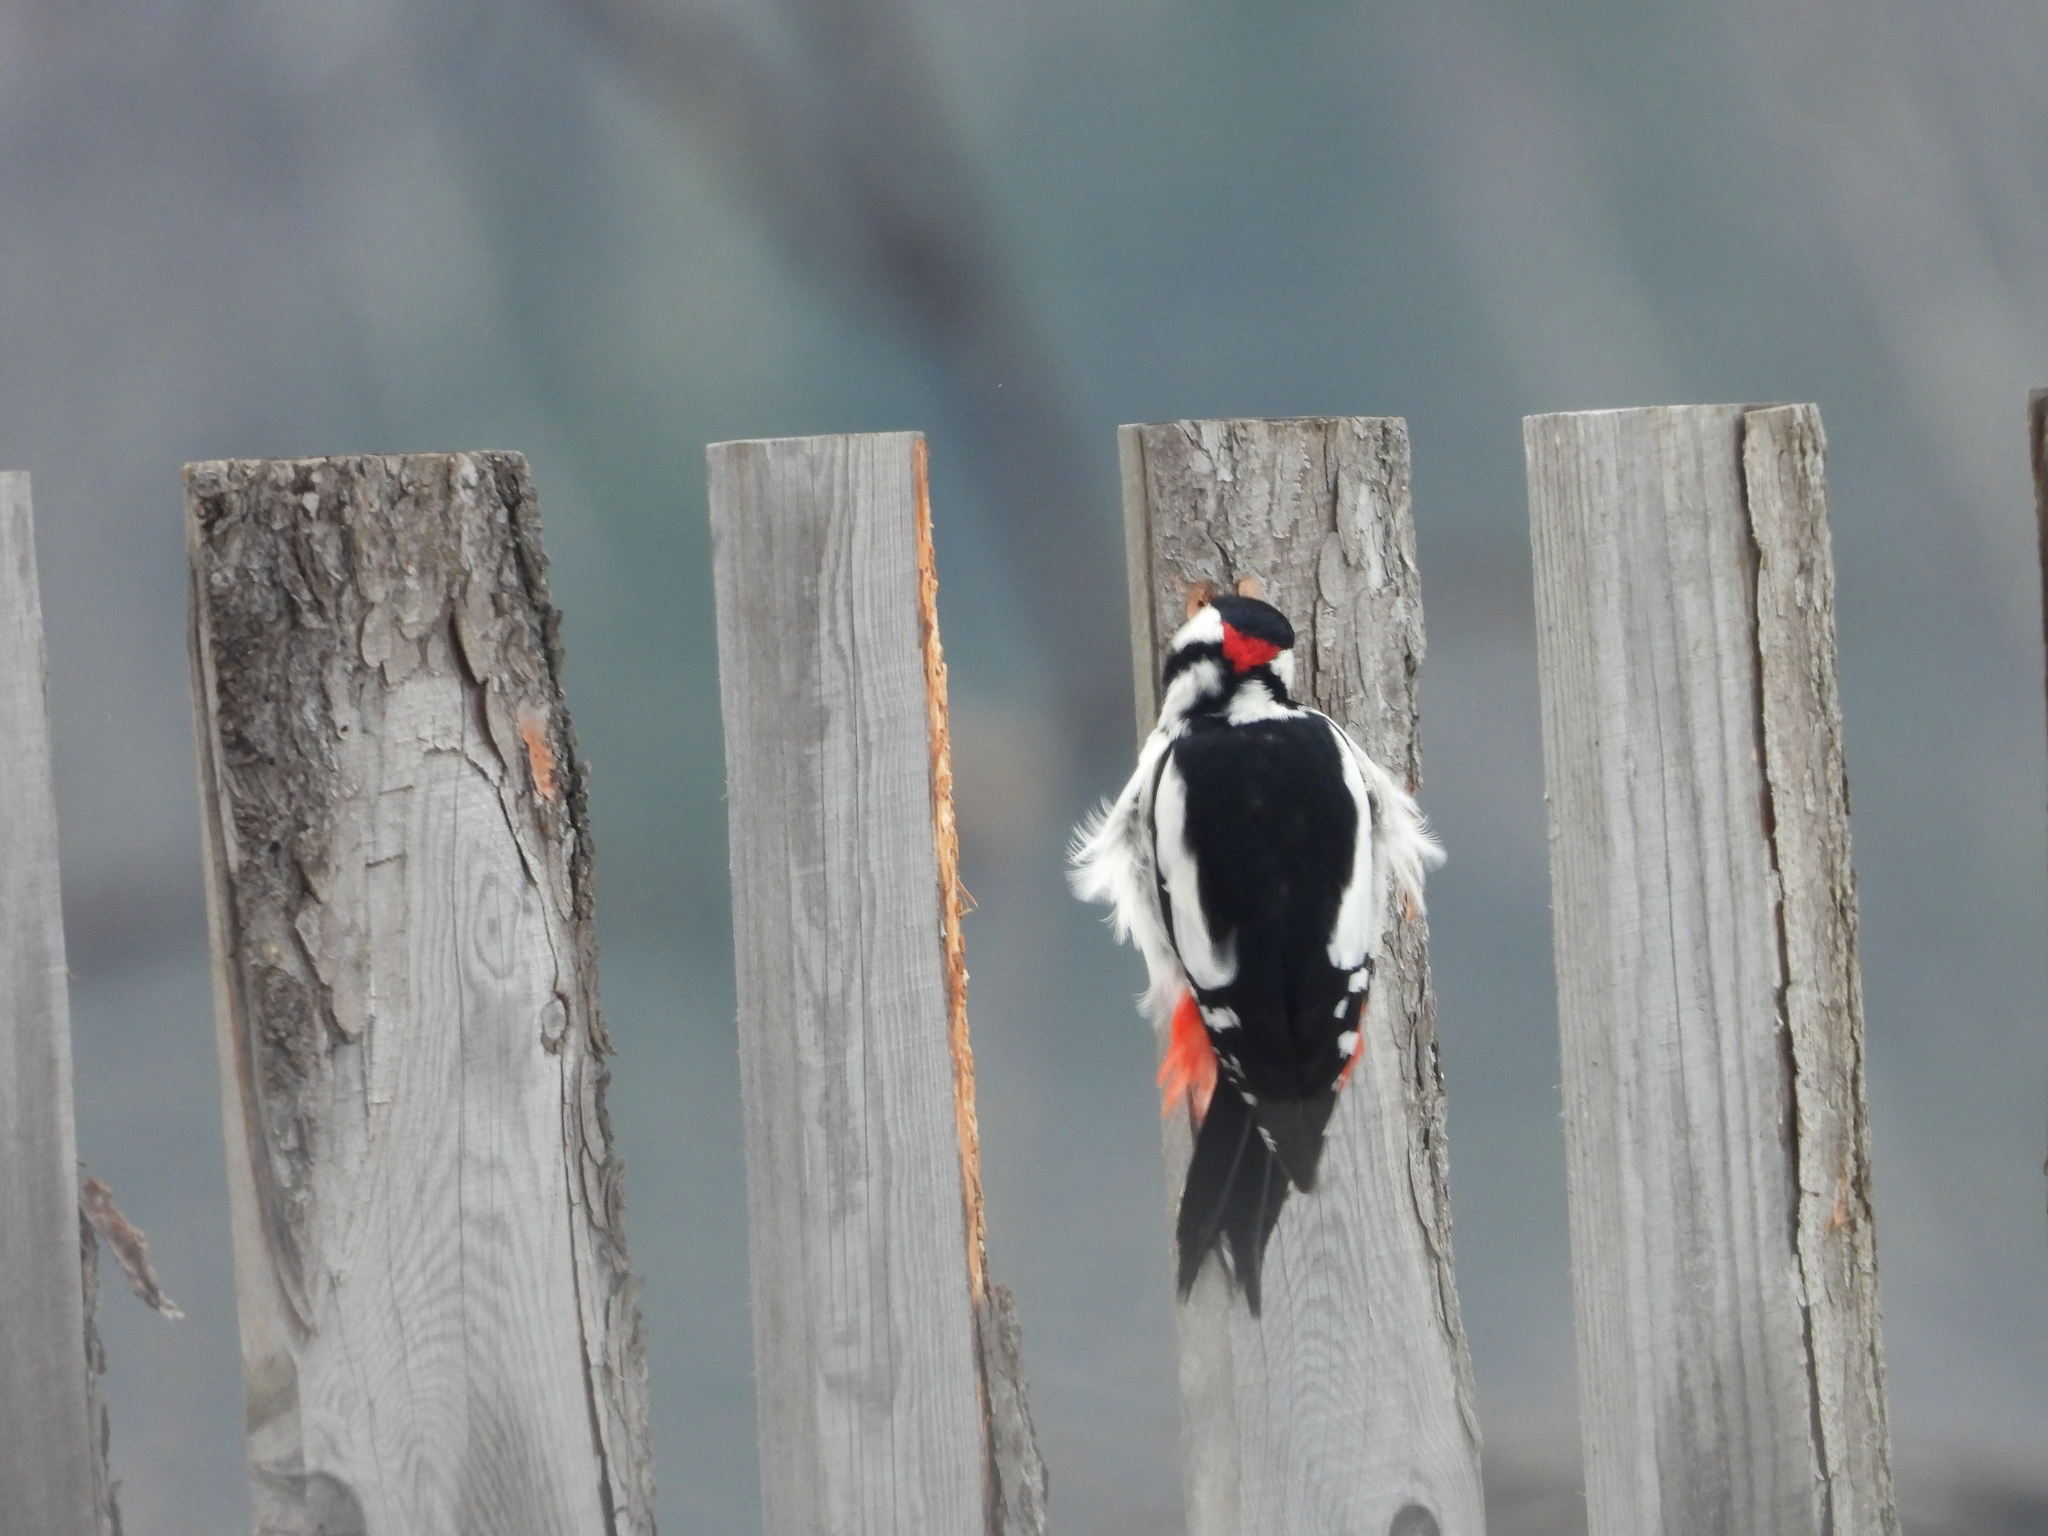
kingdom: Animalia
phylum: Chordata
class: Aves
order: Piciformes
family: Picidae
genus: Dendrocopos
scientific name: Dendrocopos major
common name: Great spotted woodpecker
